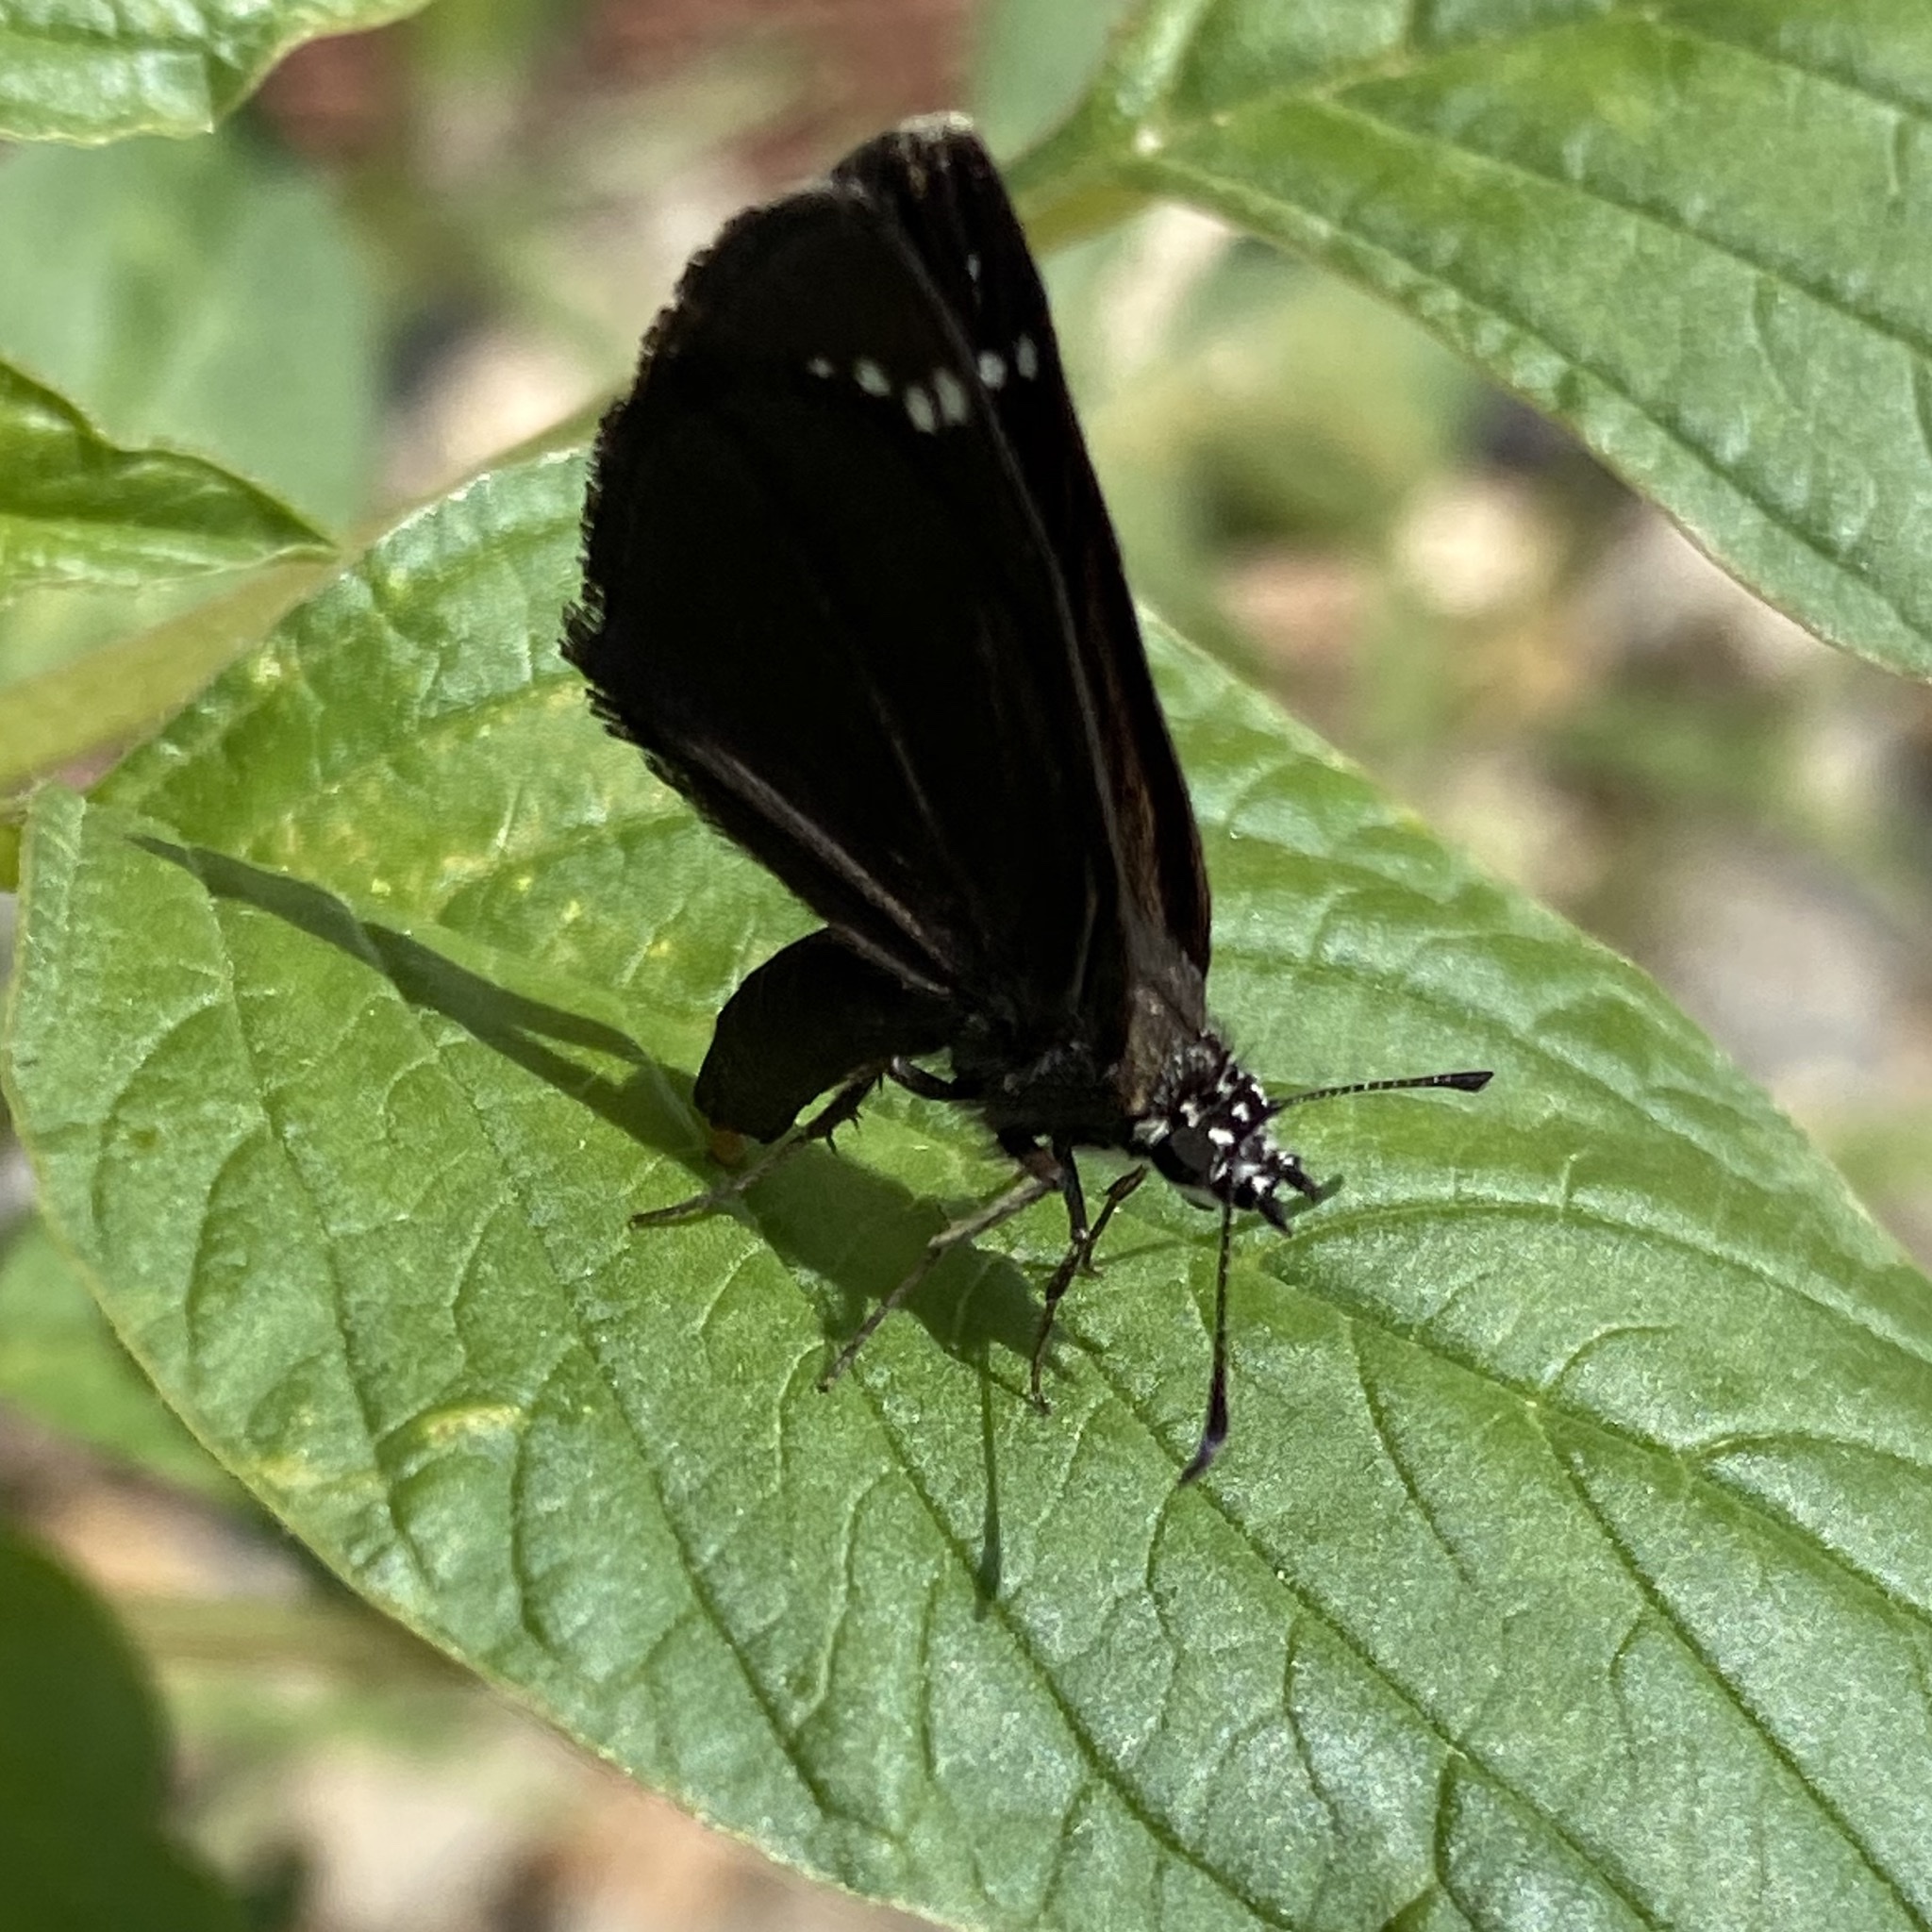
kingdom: Animalia
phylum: Arthropoda
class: Insecta
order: Lepidoptera
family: Hesperiidae
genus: Pholisora
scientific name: Pholisora catullus
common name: Common sootywing
